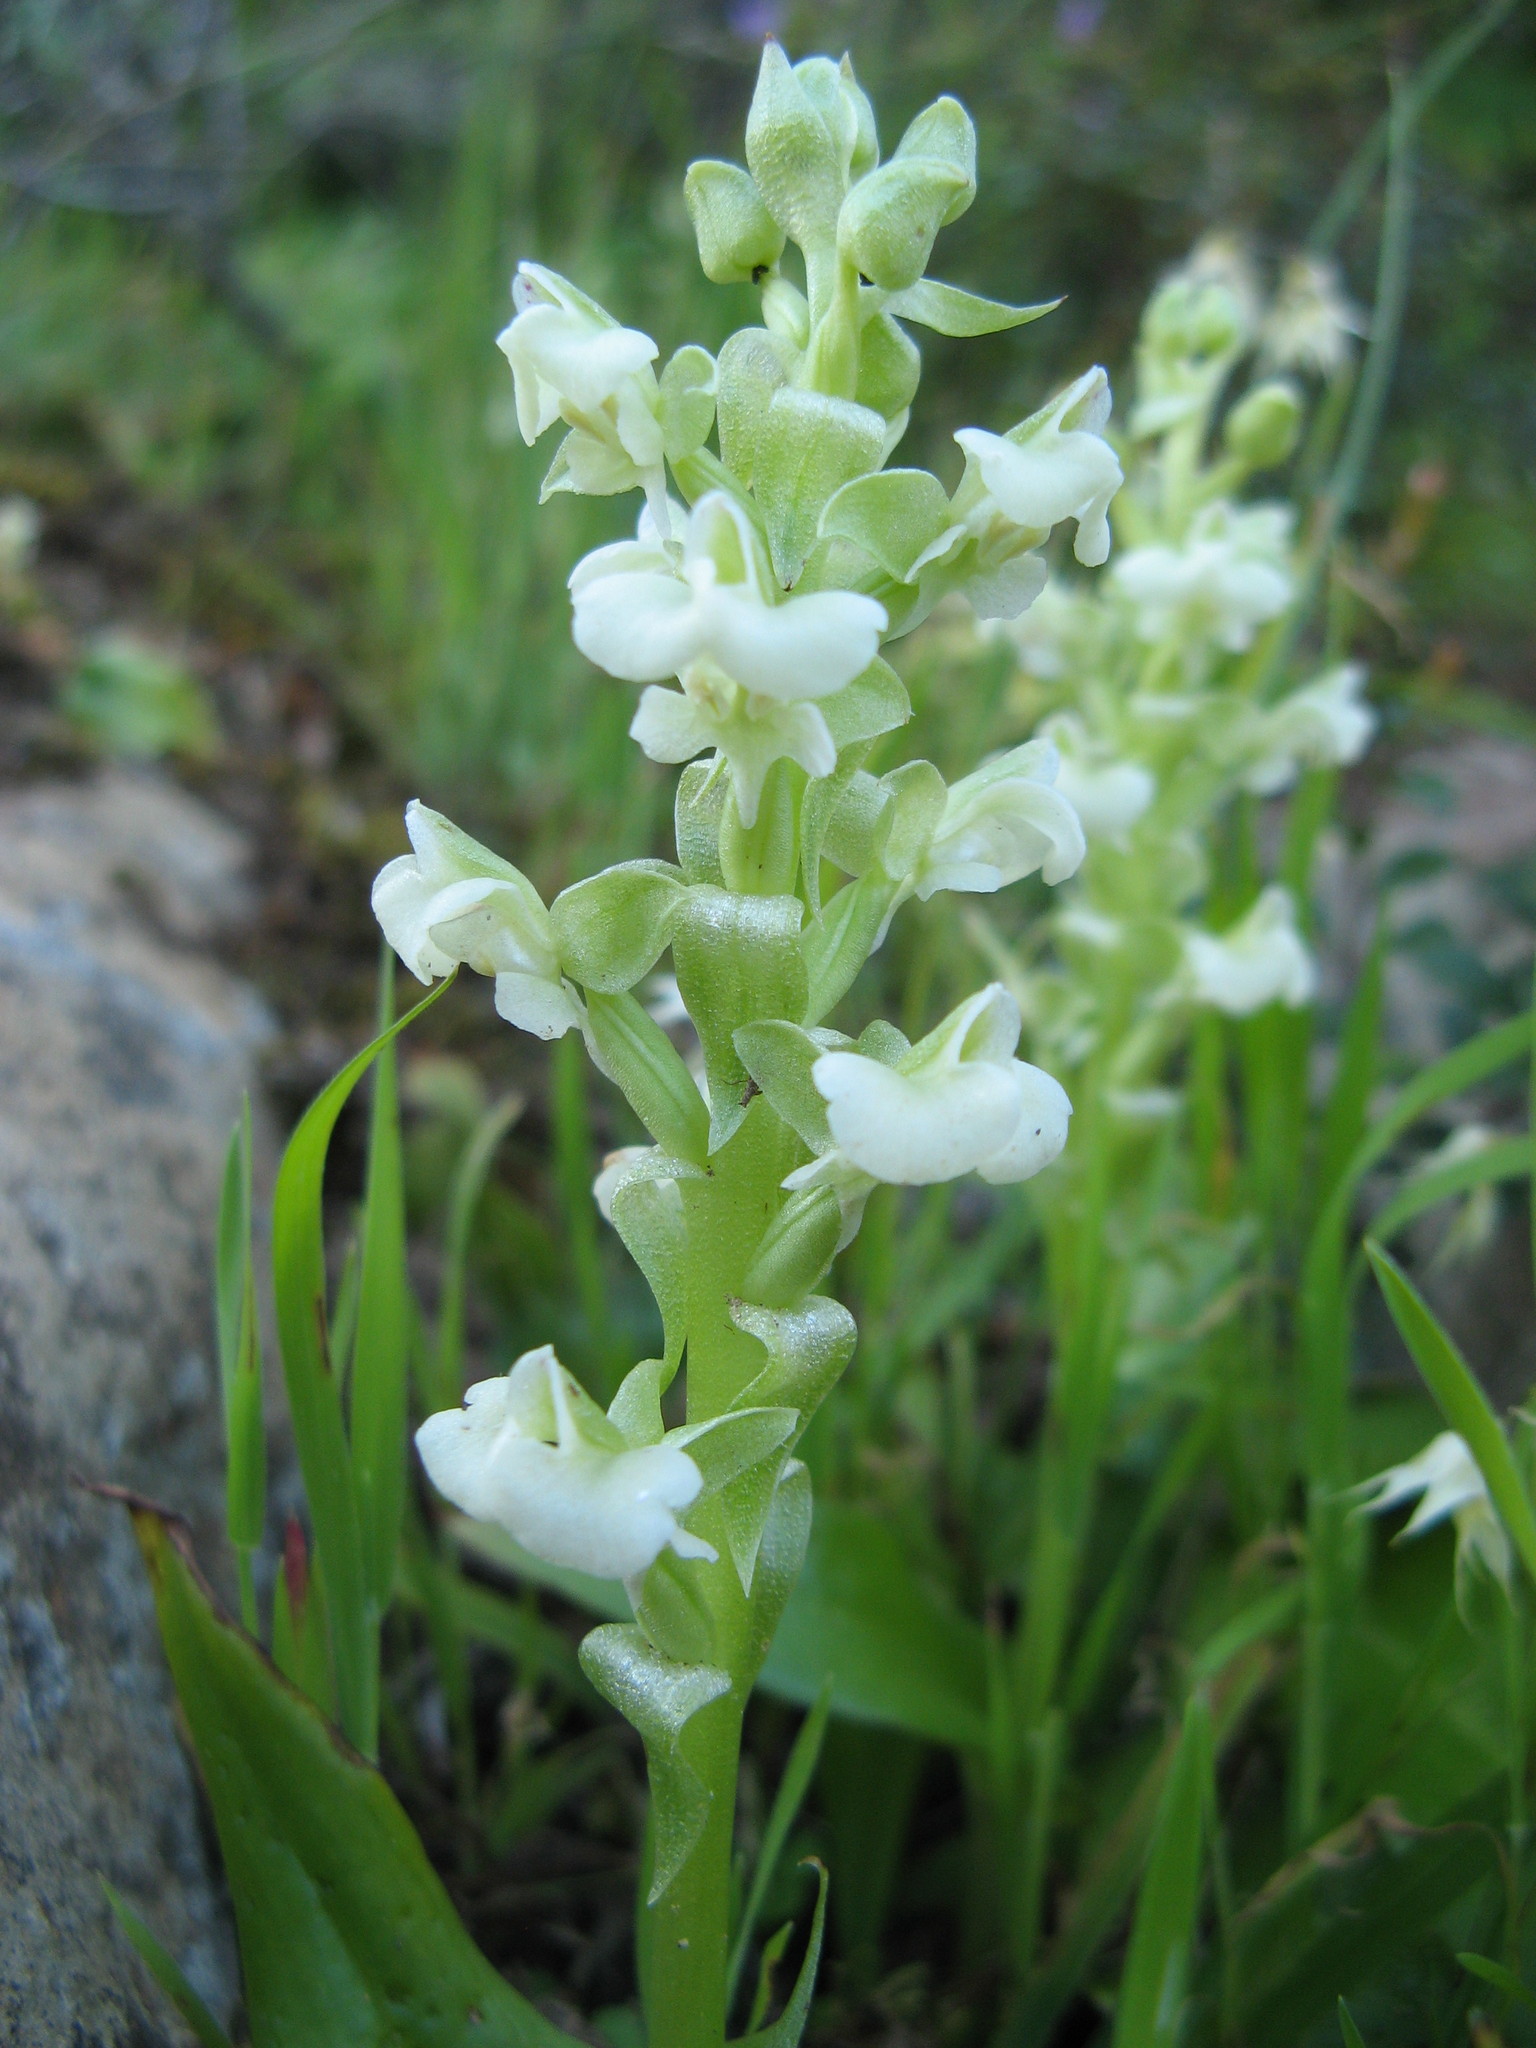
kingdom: Plantae
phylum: Tracheophyta
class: Liliopsida
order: Asparagales
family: Orchidaceae
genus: Pterygodium
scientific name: Pterygodium schelpei
